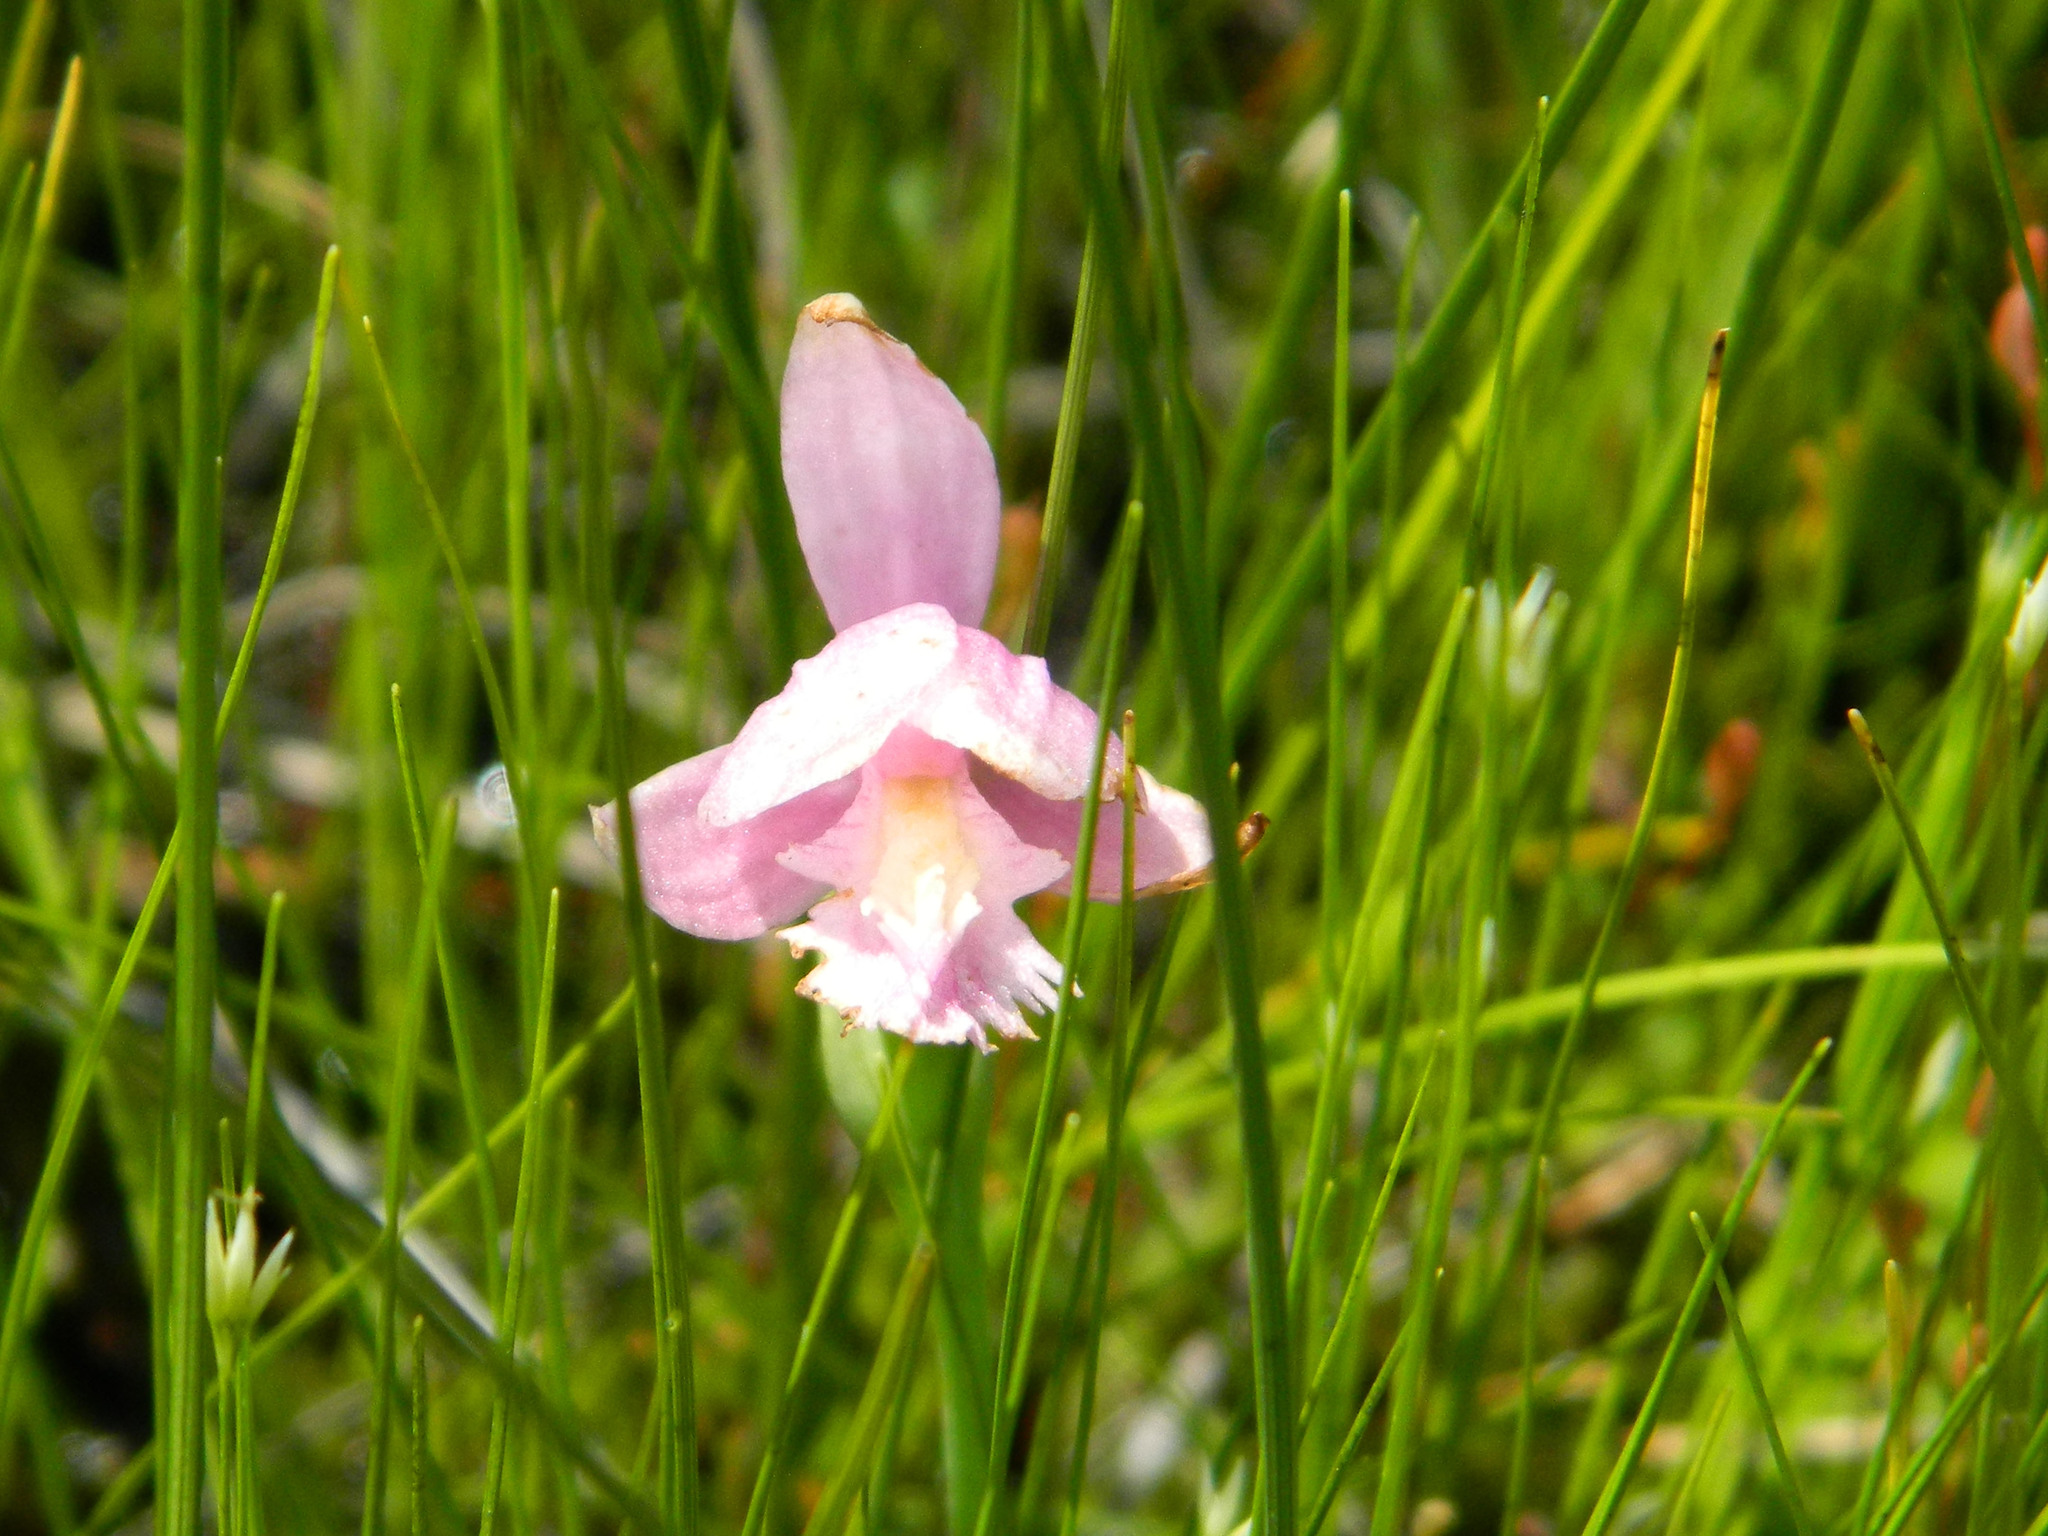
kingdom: Plantae
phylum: Tracheophyta
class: Liliopsida
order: Asparagales
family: Orchidaceae
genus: Pogonia
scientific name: Pogonia ophioglossoides
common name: Rose pogonia
